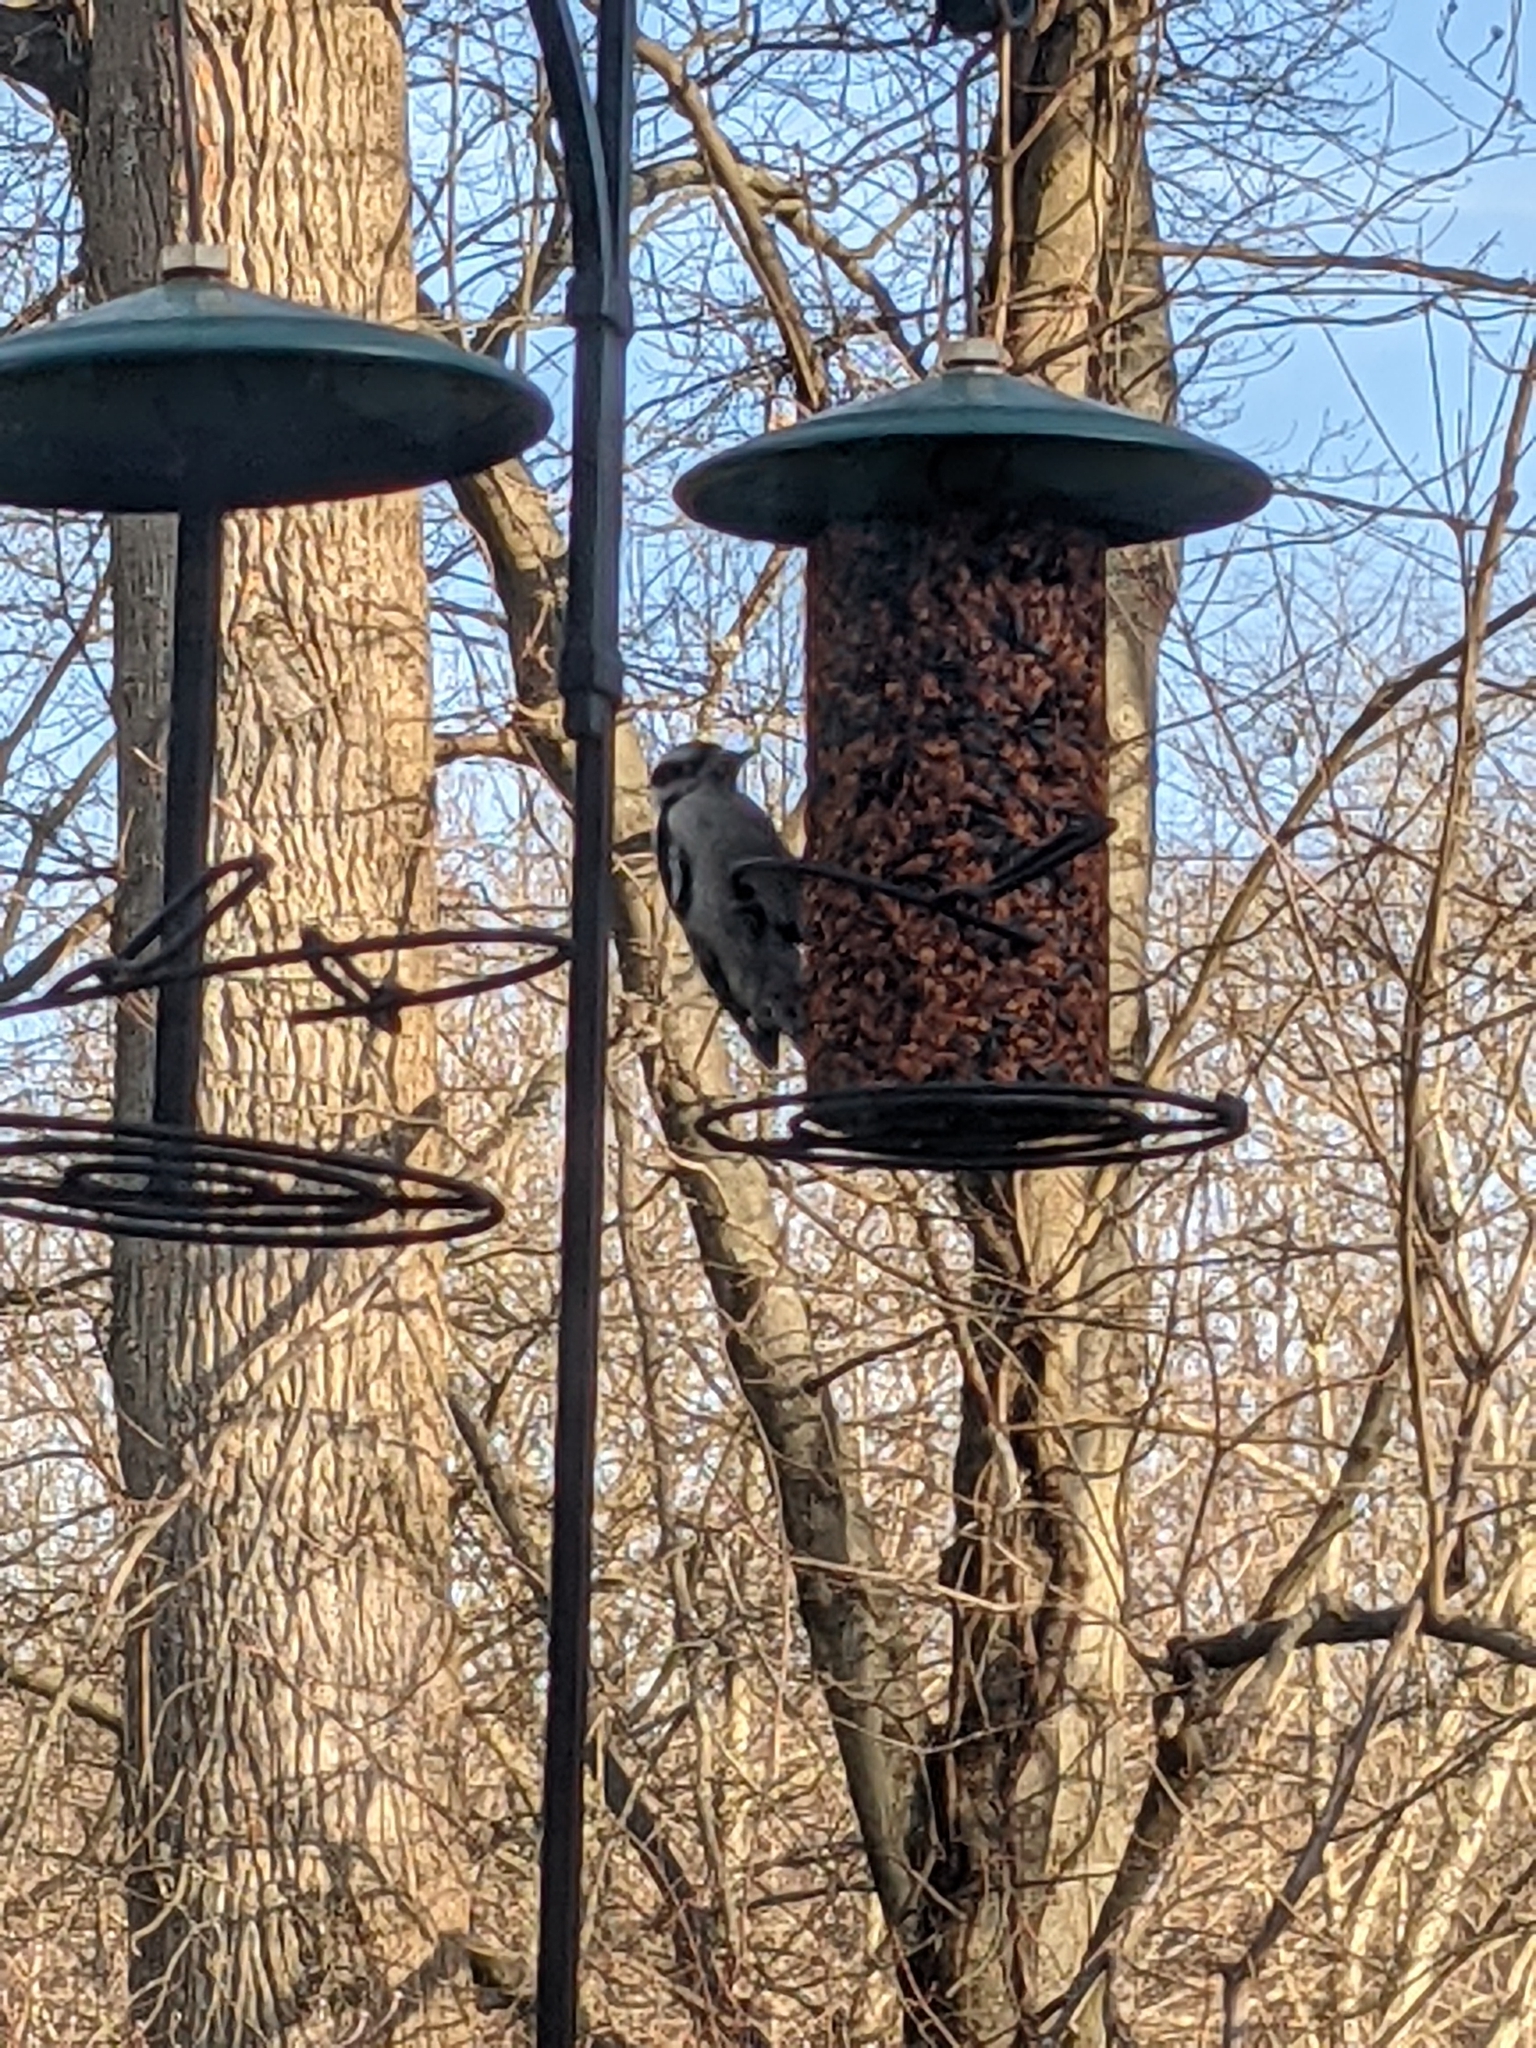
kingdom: Animalia
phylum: Chordata
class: Aves
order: Piciformes
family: Picidae
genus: Dryobates
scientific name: Dryobates pubescens
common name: Downy woodpecker
